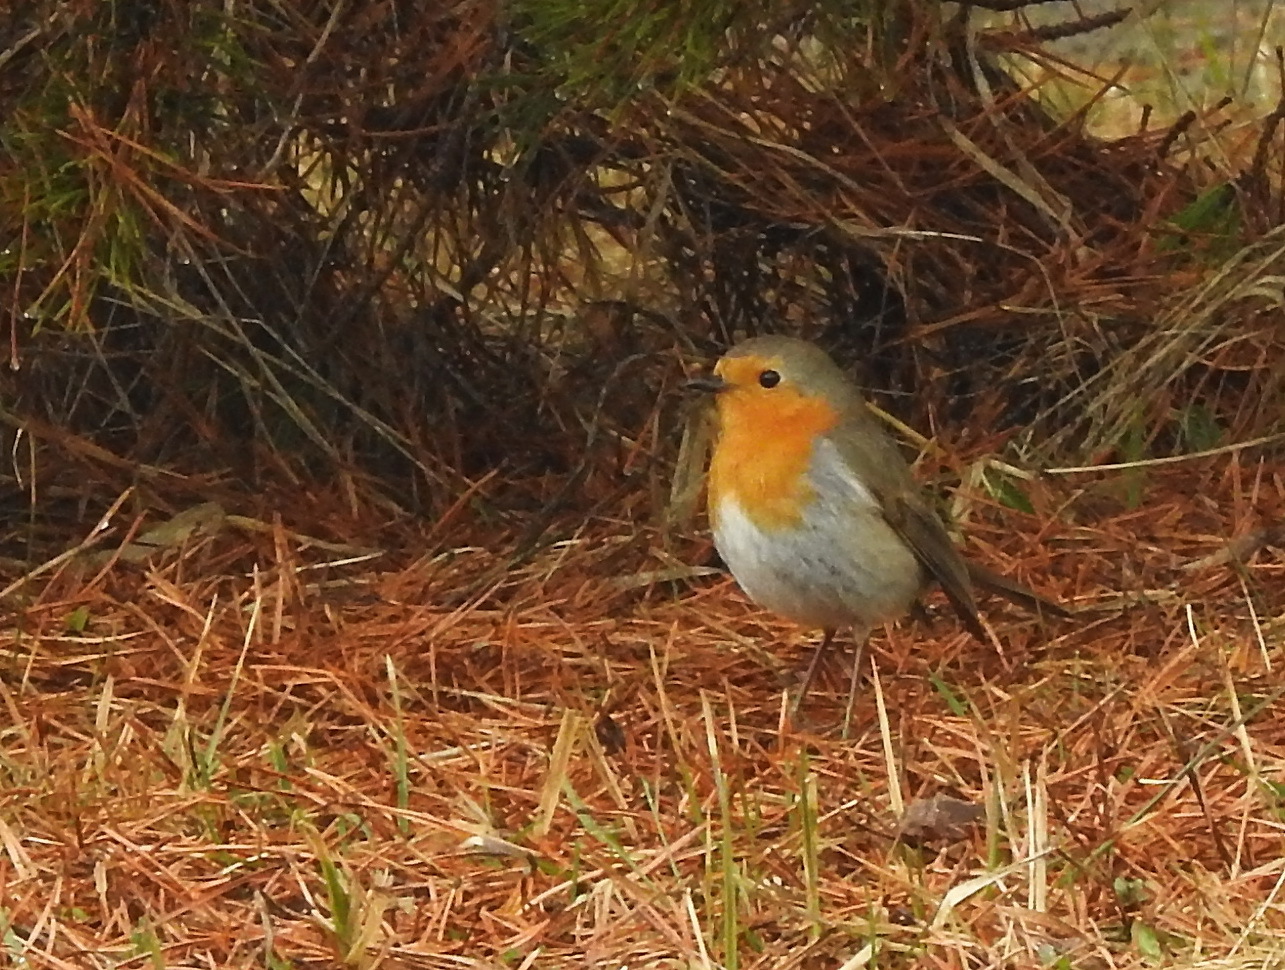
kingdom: Animalia
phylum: Chordata
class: Aves
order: Passeriformes
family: Muscicapidae
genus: Erithacus
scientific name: Erithacus rubecula
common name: European robin
